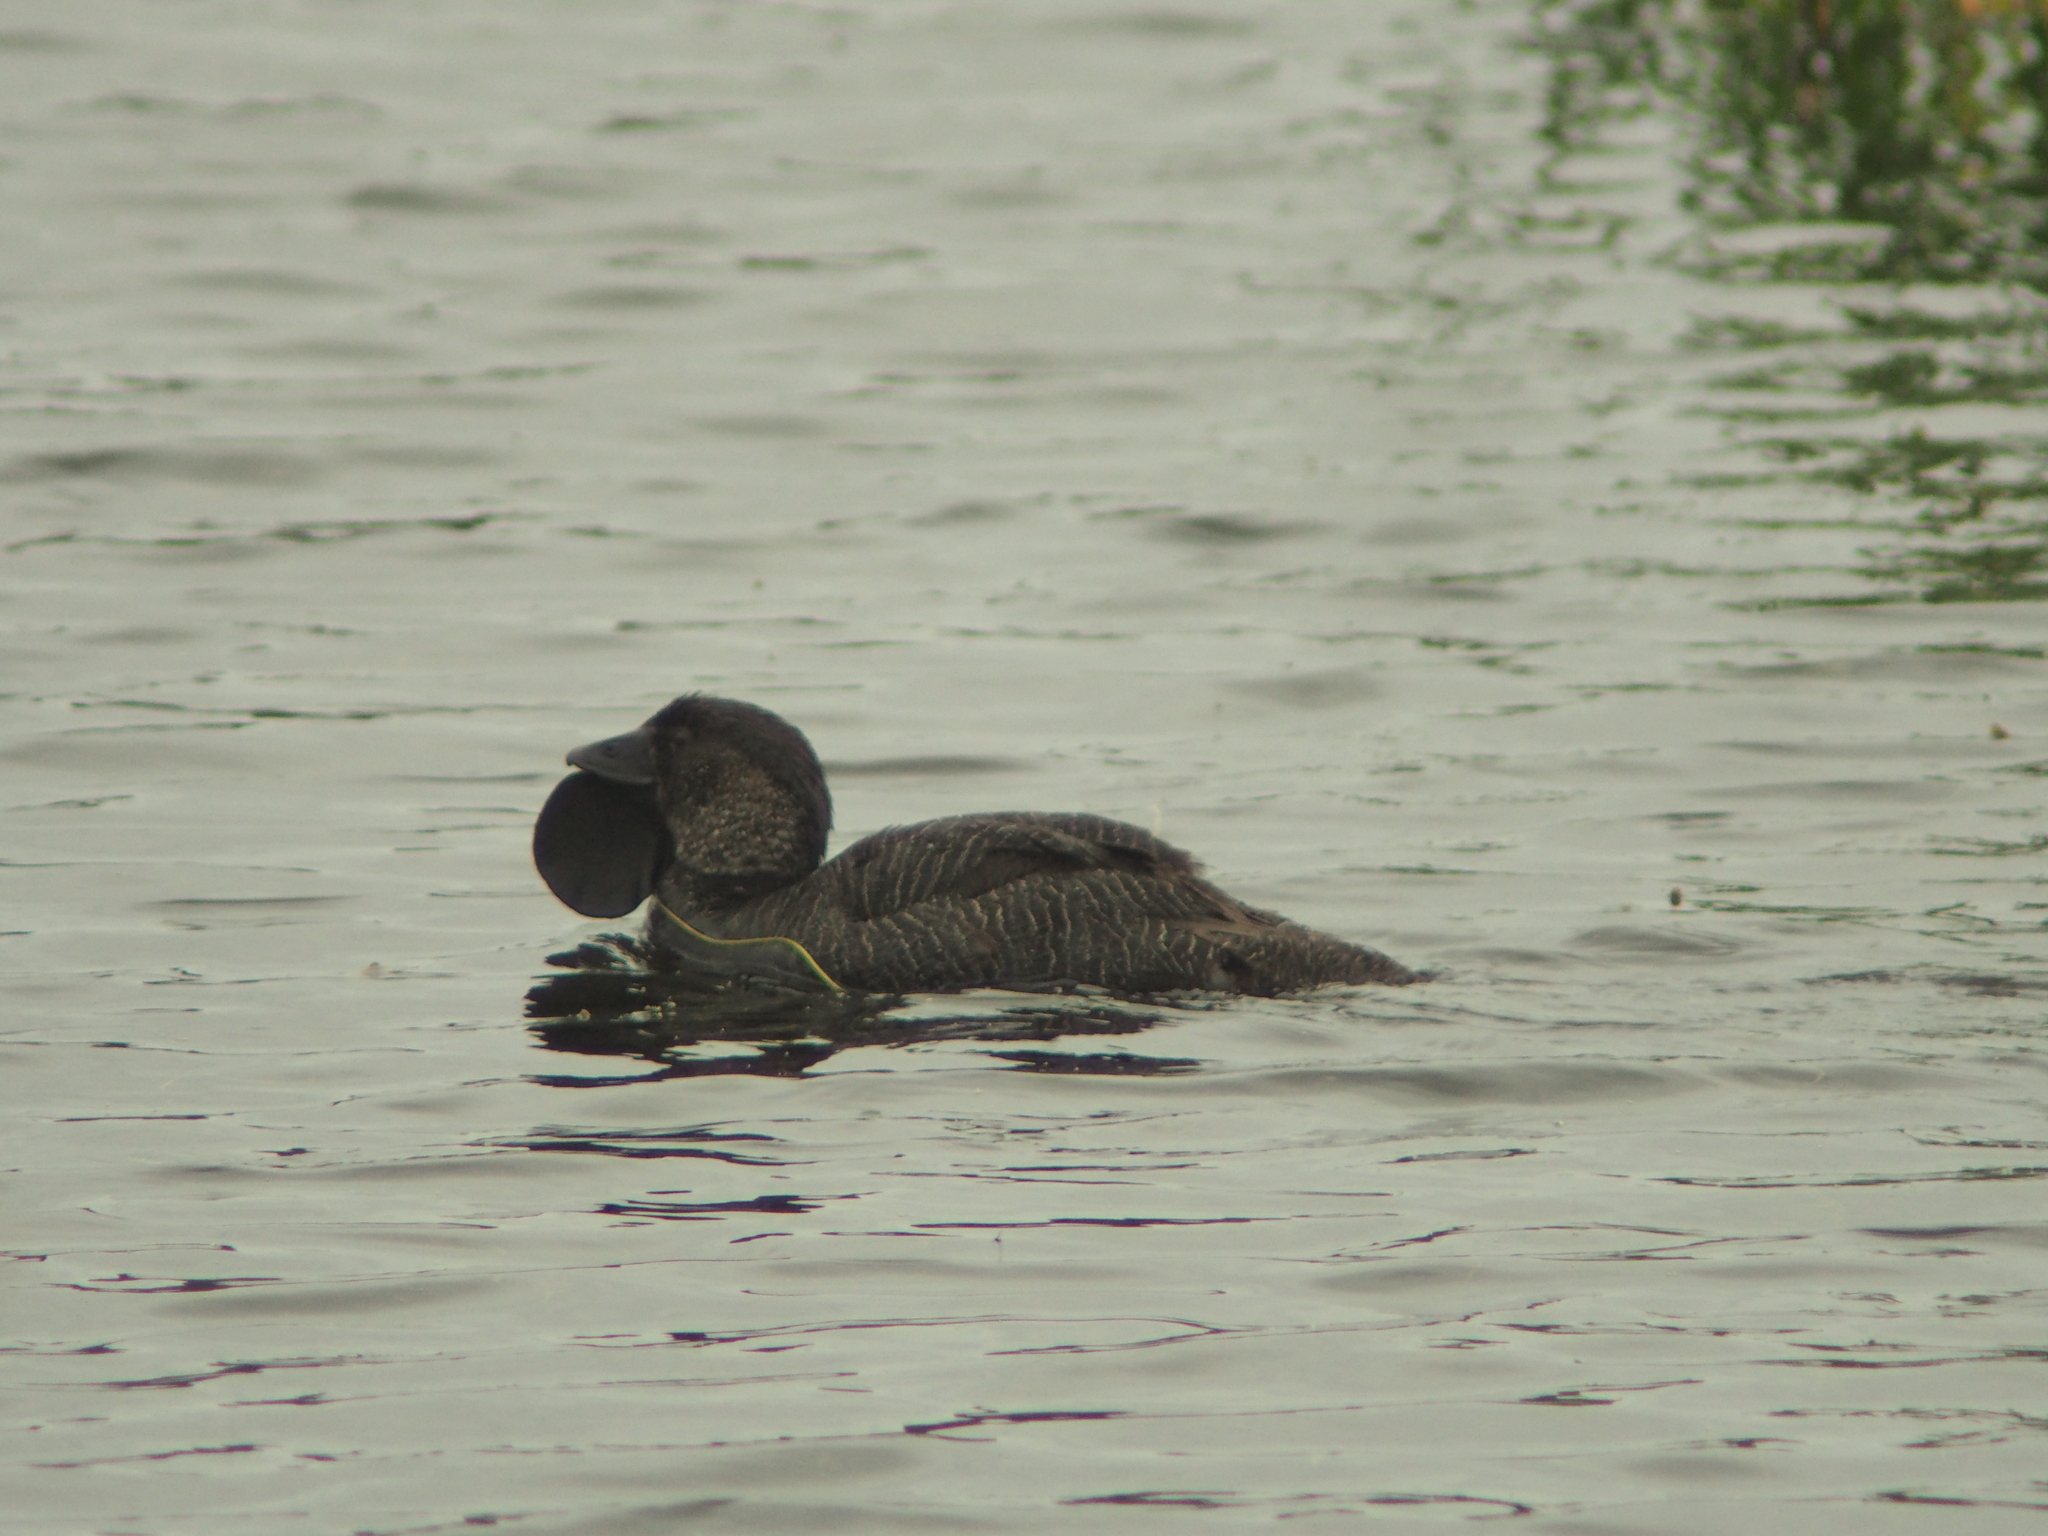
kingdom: Animalia
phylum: Chordata
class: Aves
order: Anseriformes
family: Anatidae
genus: Biziura
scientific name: Biziura lobata
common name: Musk duck
